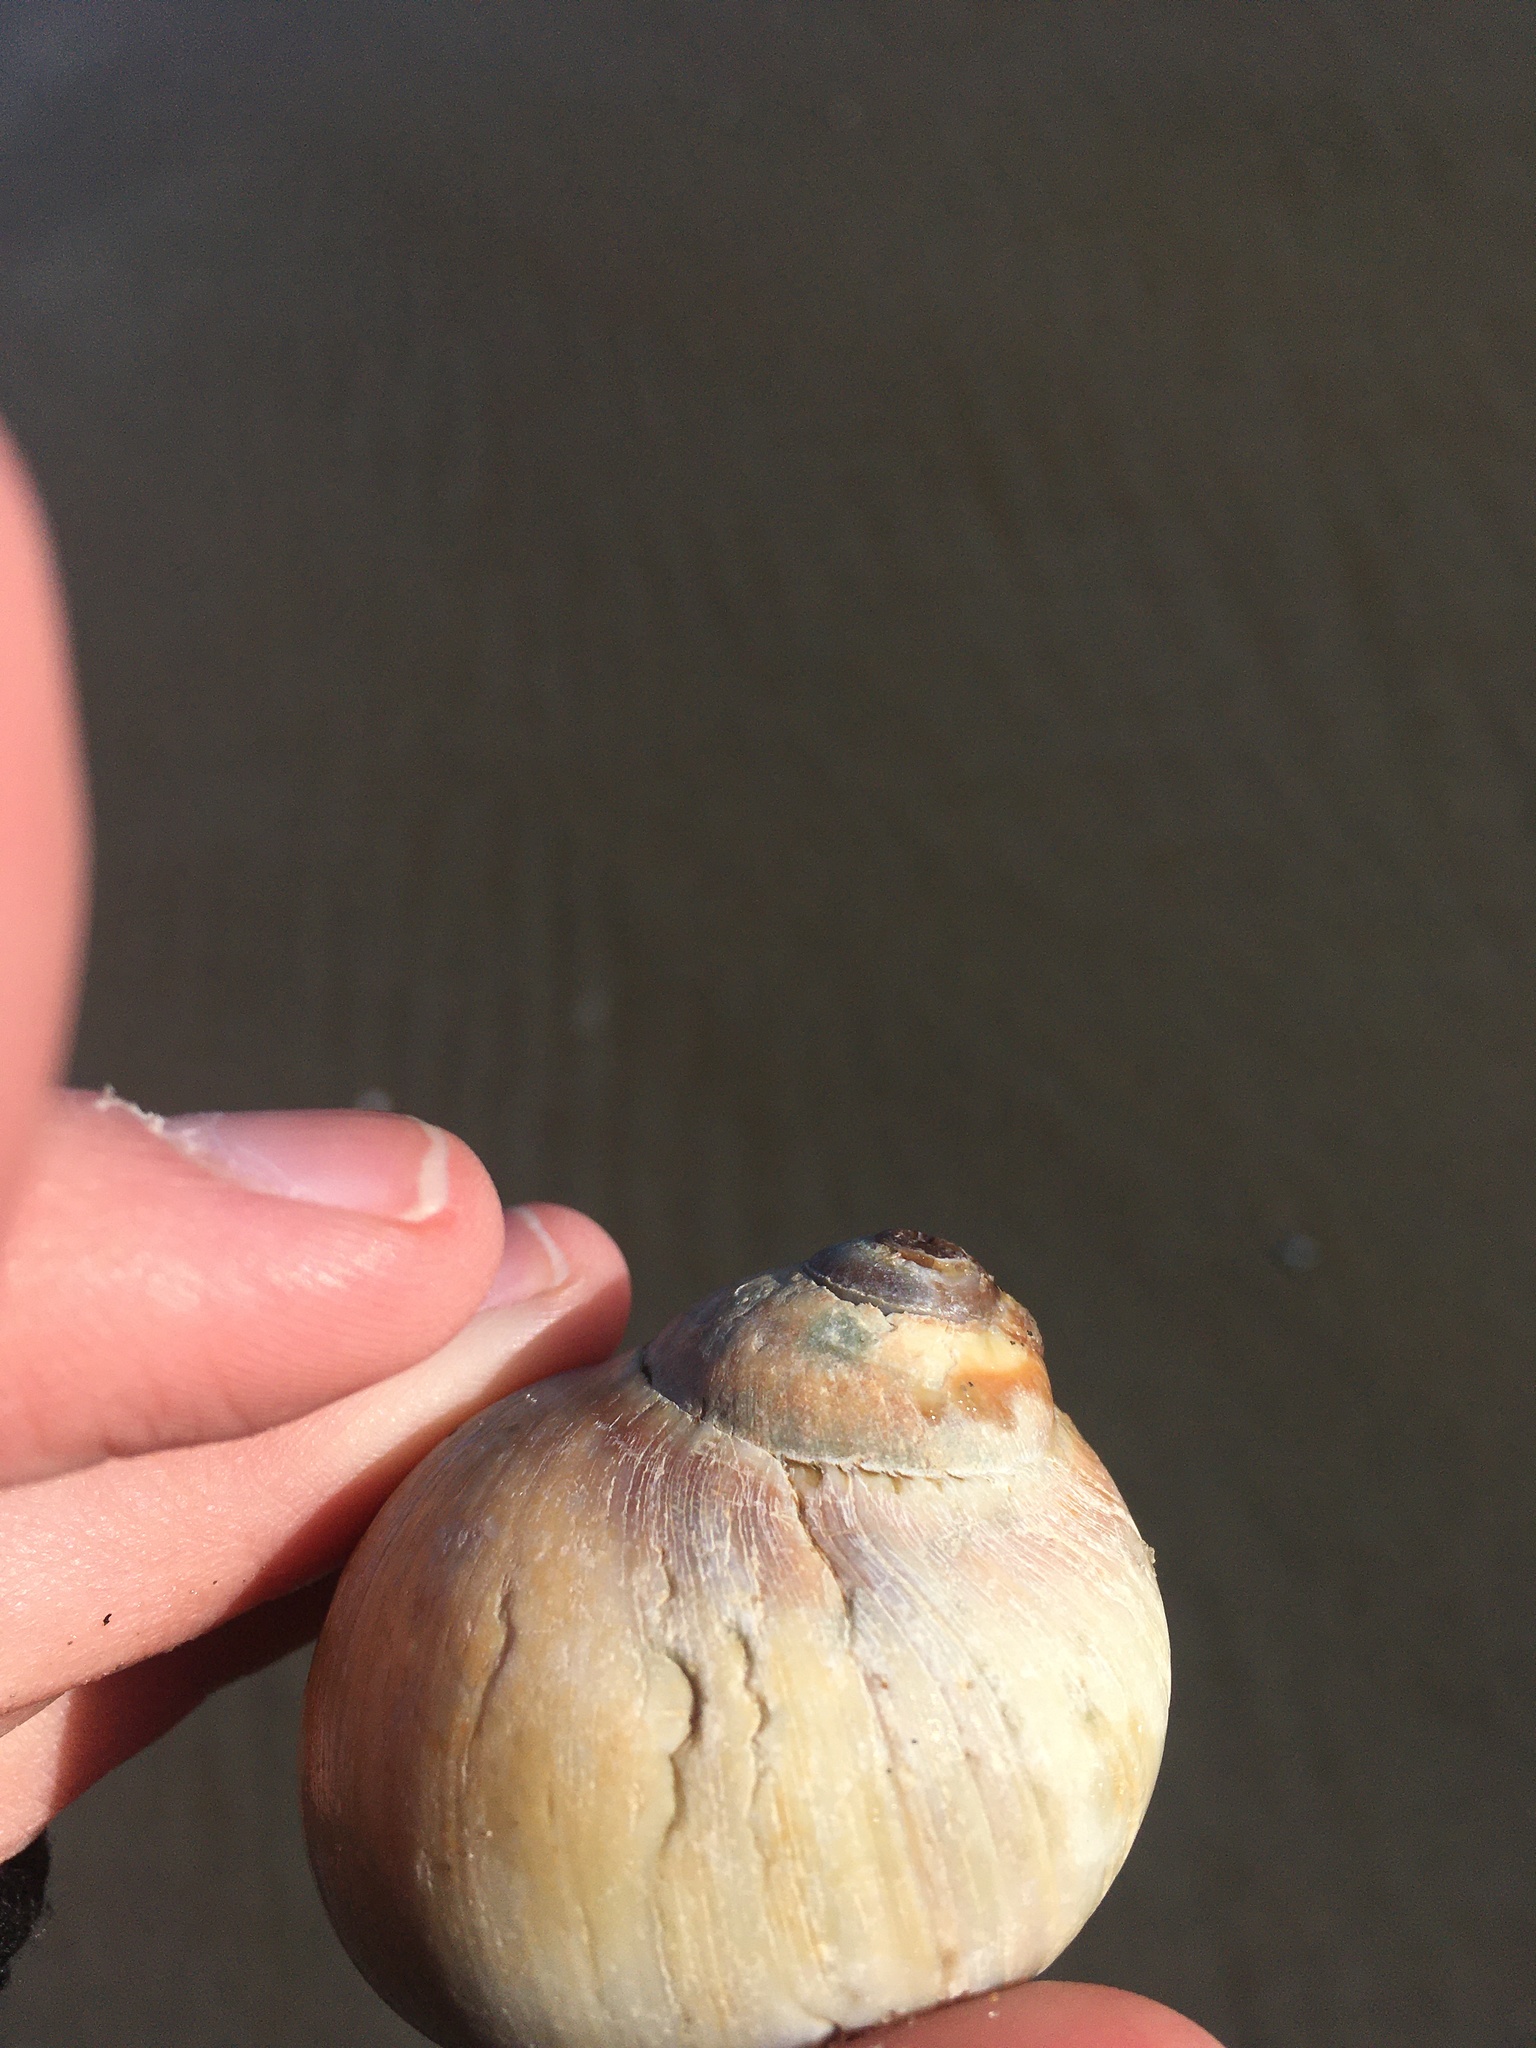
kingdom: Animalia
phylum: Mollusca
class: Gastropoda
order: Littorinimorpha
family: Naticidae
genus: Euspira
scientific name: Euspira heros
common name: Common northern moonsnail
